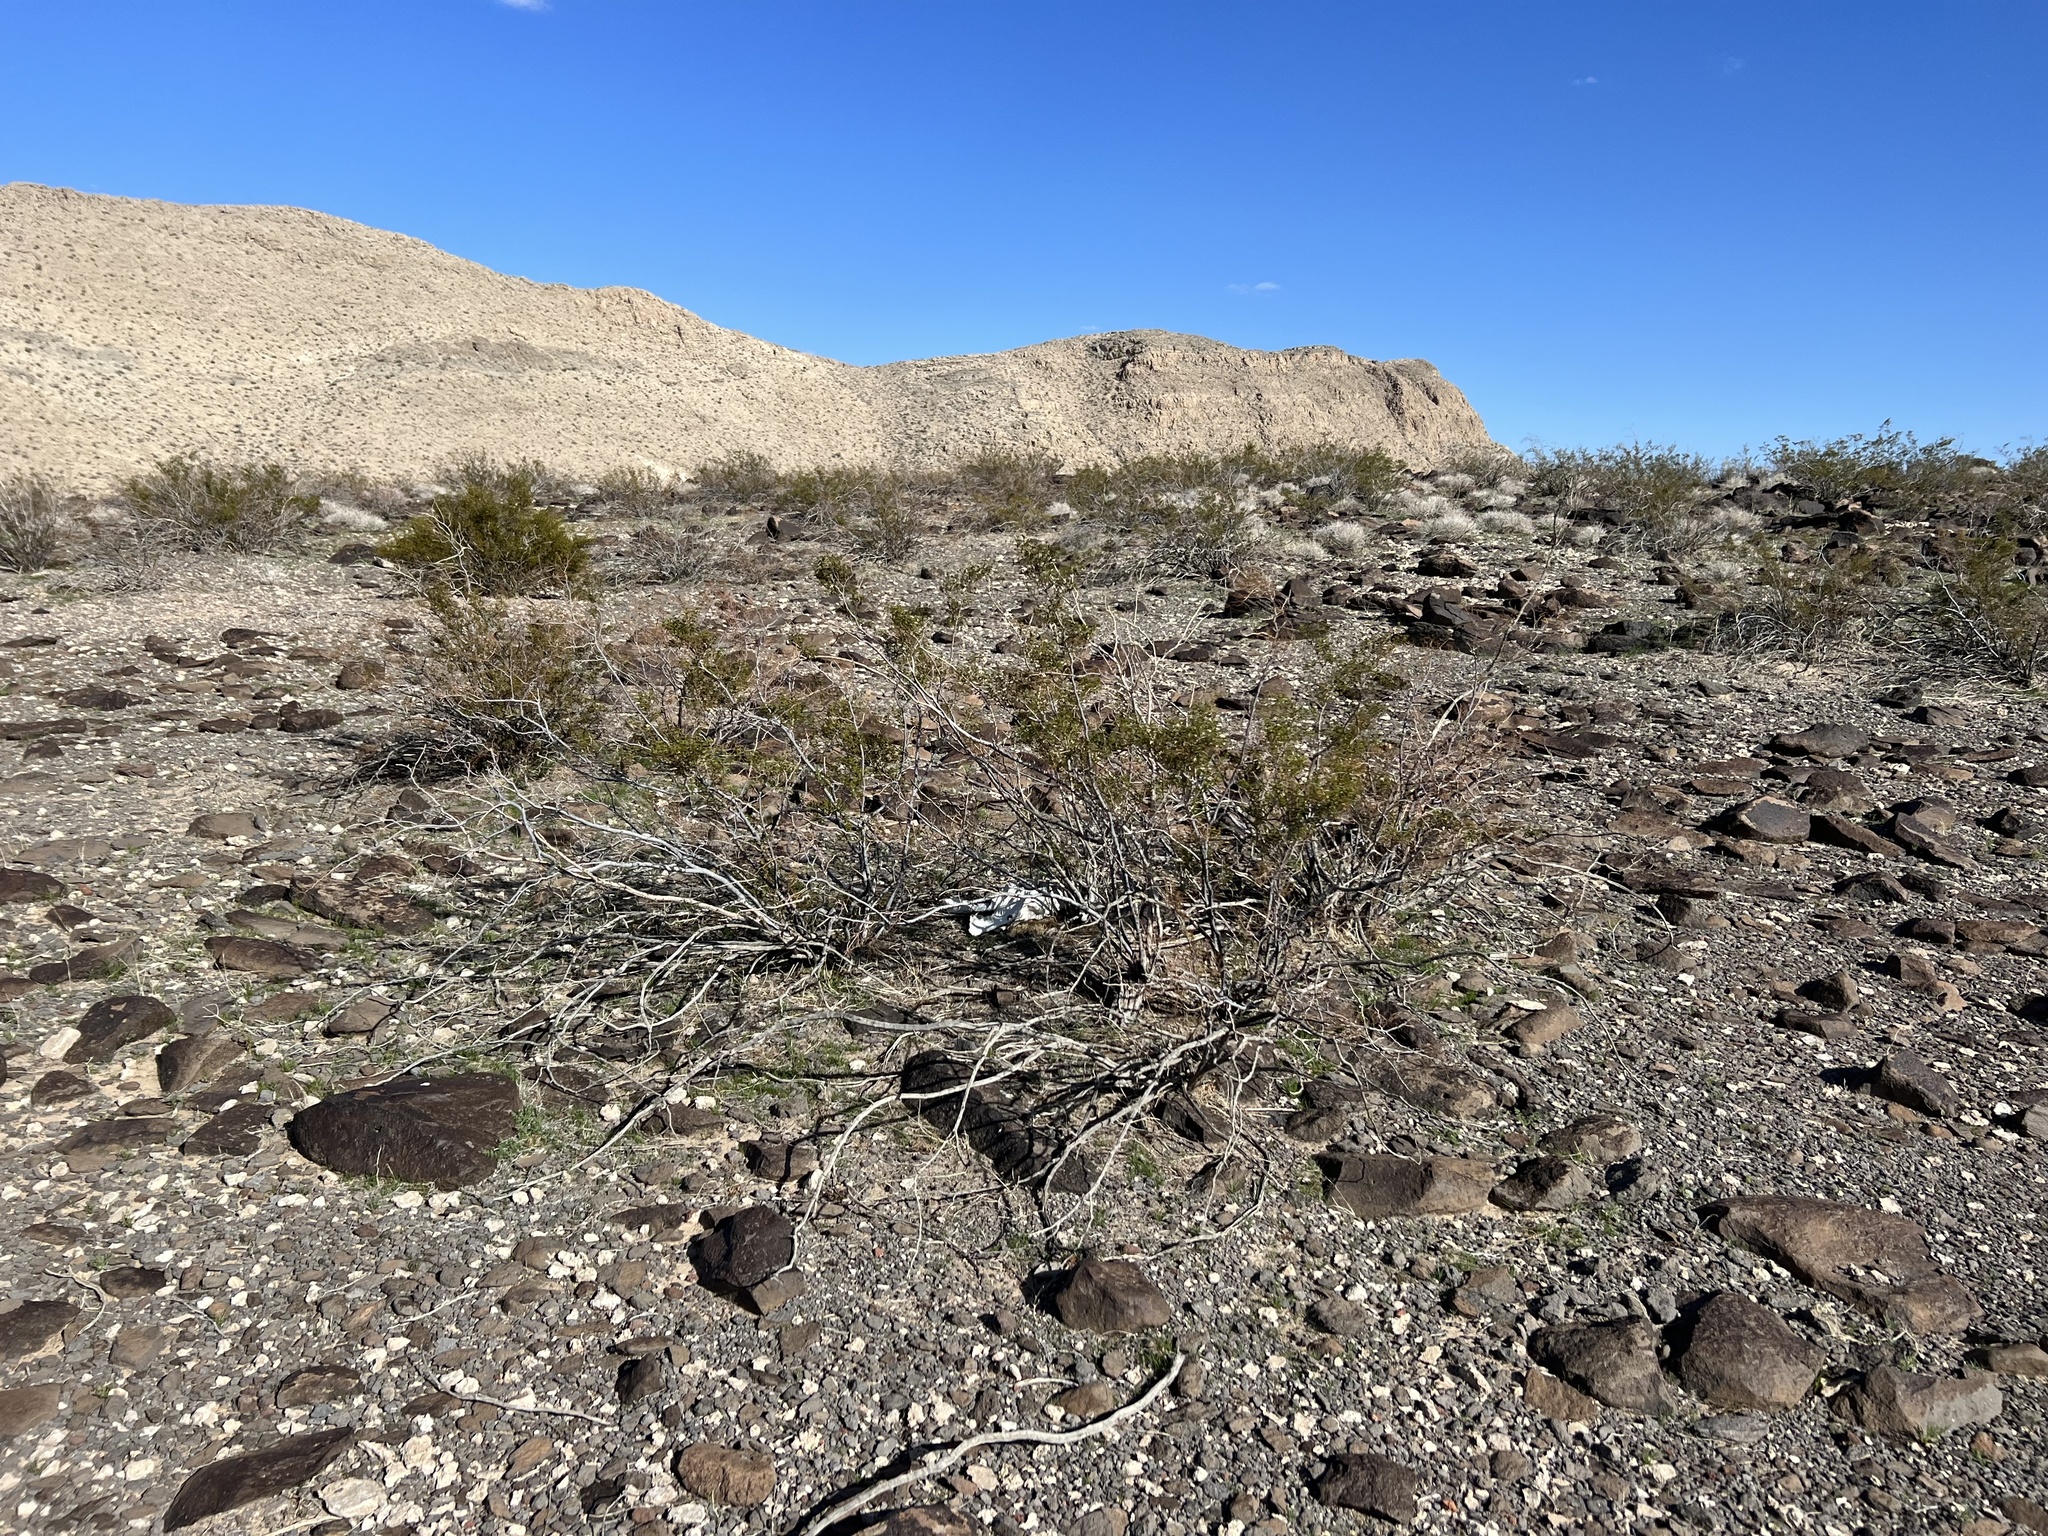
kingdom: Plantae
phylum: Tracheophyta
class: Magnoliopsida
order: Zygophyllales
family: Zygophyllaceae
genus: Larrea
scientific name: Larrea tridentata
